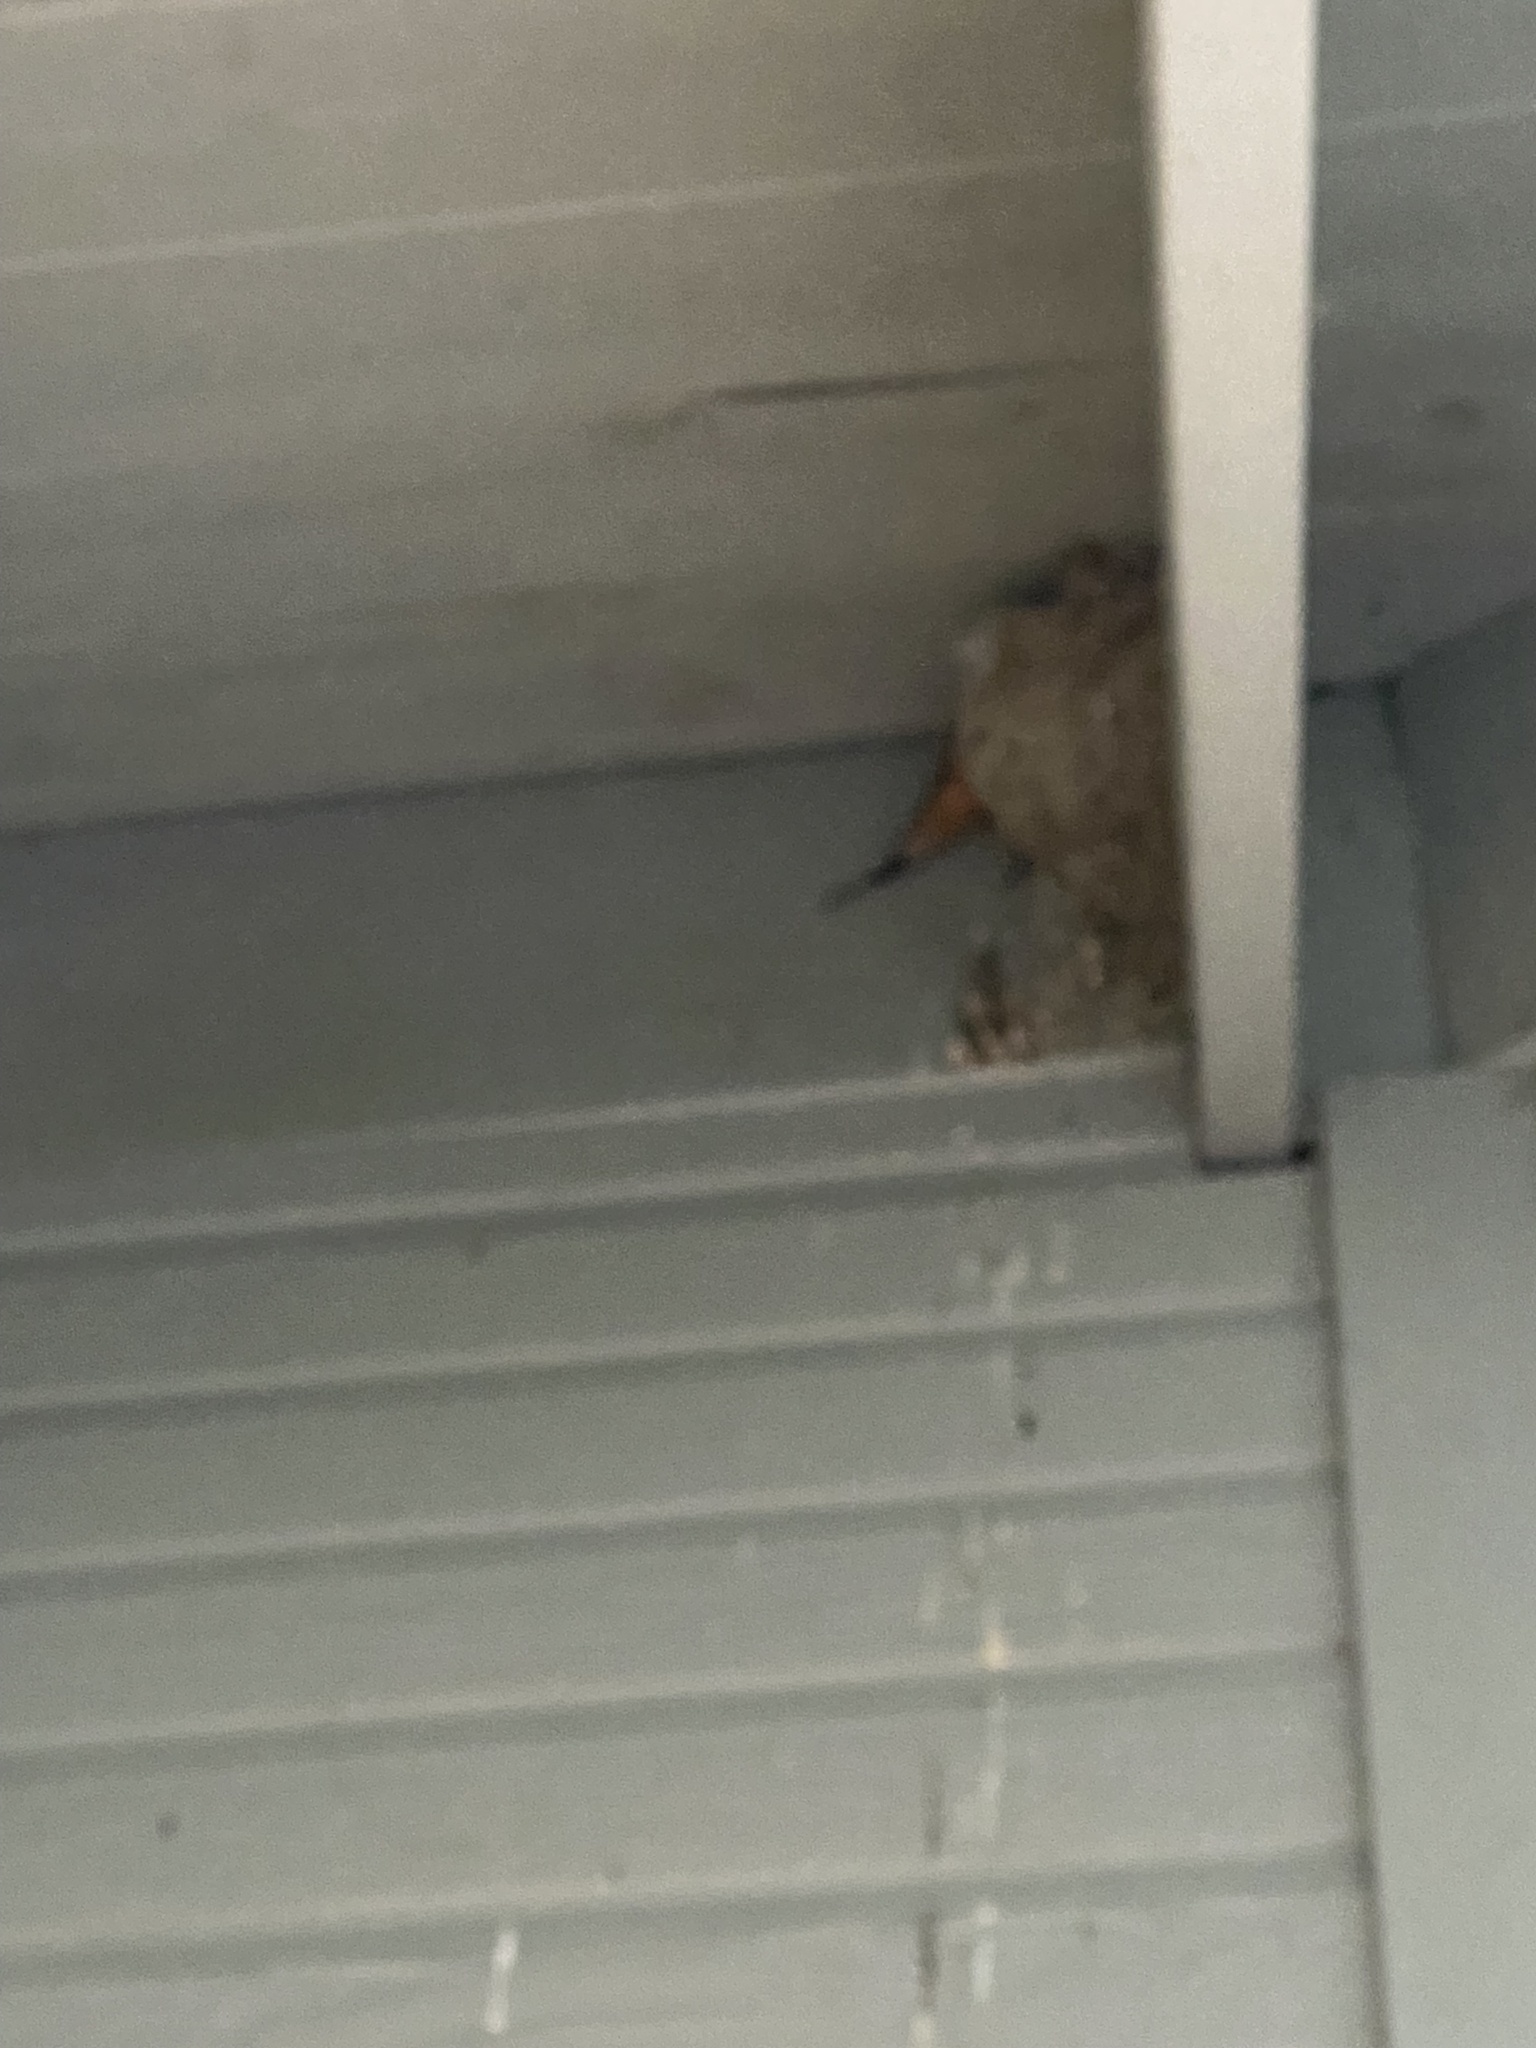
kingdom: Animalia
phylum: Chordata
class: Aves
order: Passeriformes
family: Hirundinidae
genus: Hirundo
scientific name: Hirundo rustica
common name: Barn swallow
